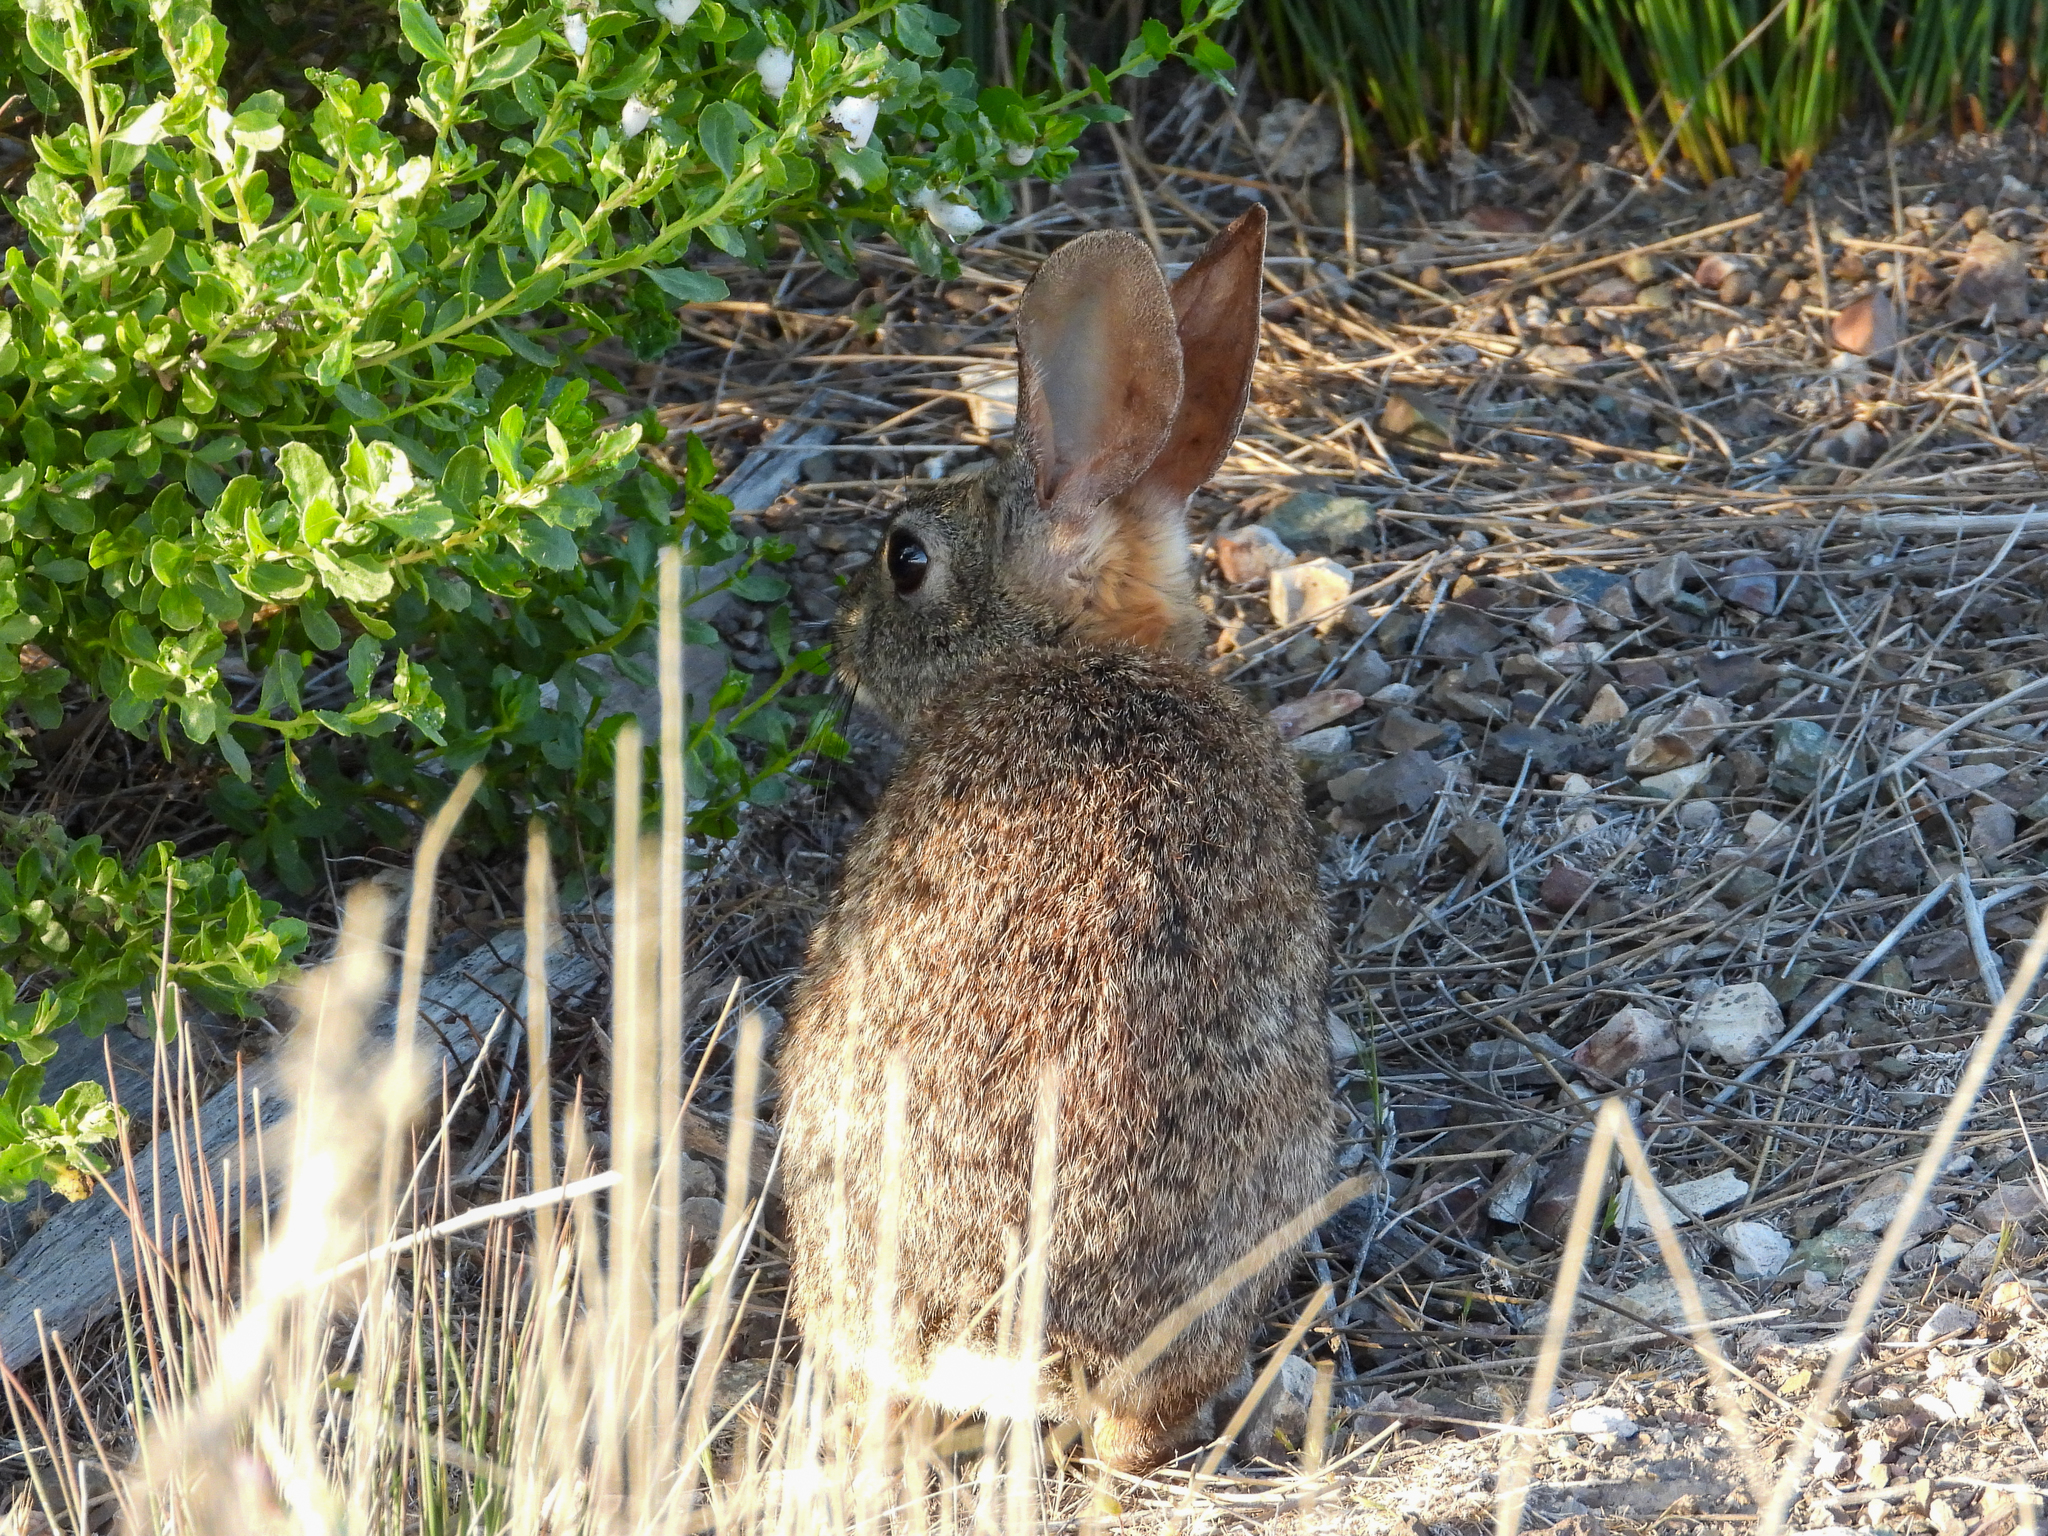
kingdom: Animalia
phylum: Chordata
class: Mammalia
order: Lagomorpha
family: Leporidae
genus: Sylvilagus
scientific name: Sylvilagus bachmani
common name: Brush rabbit
